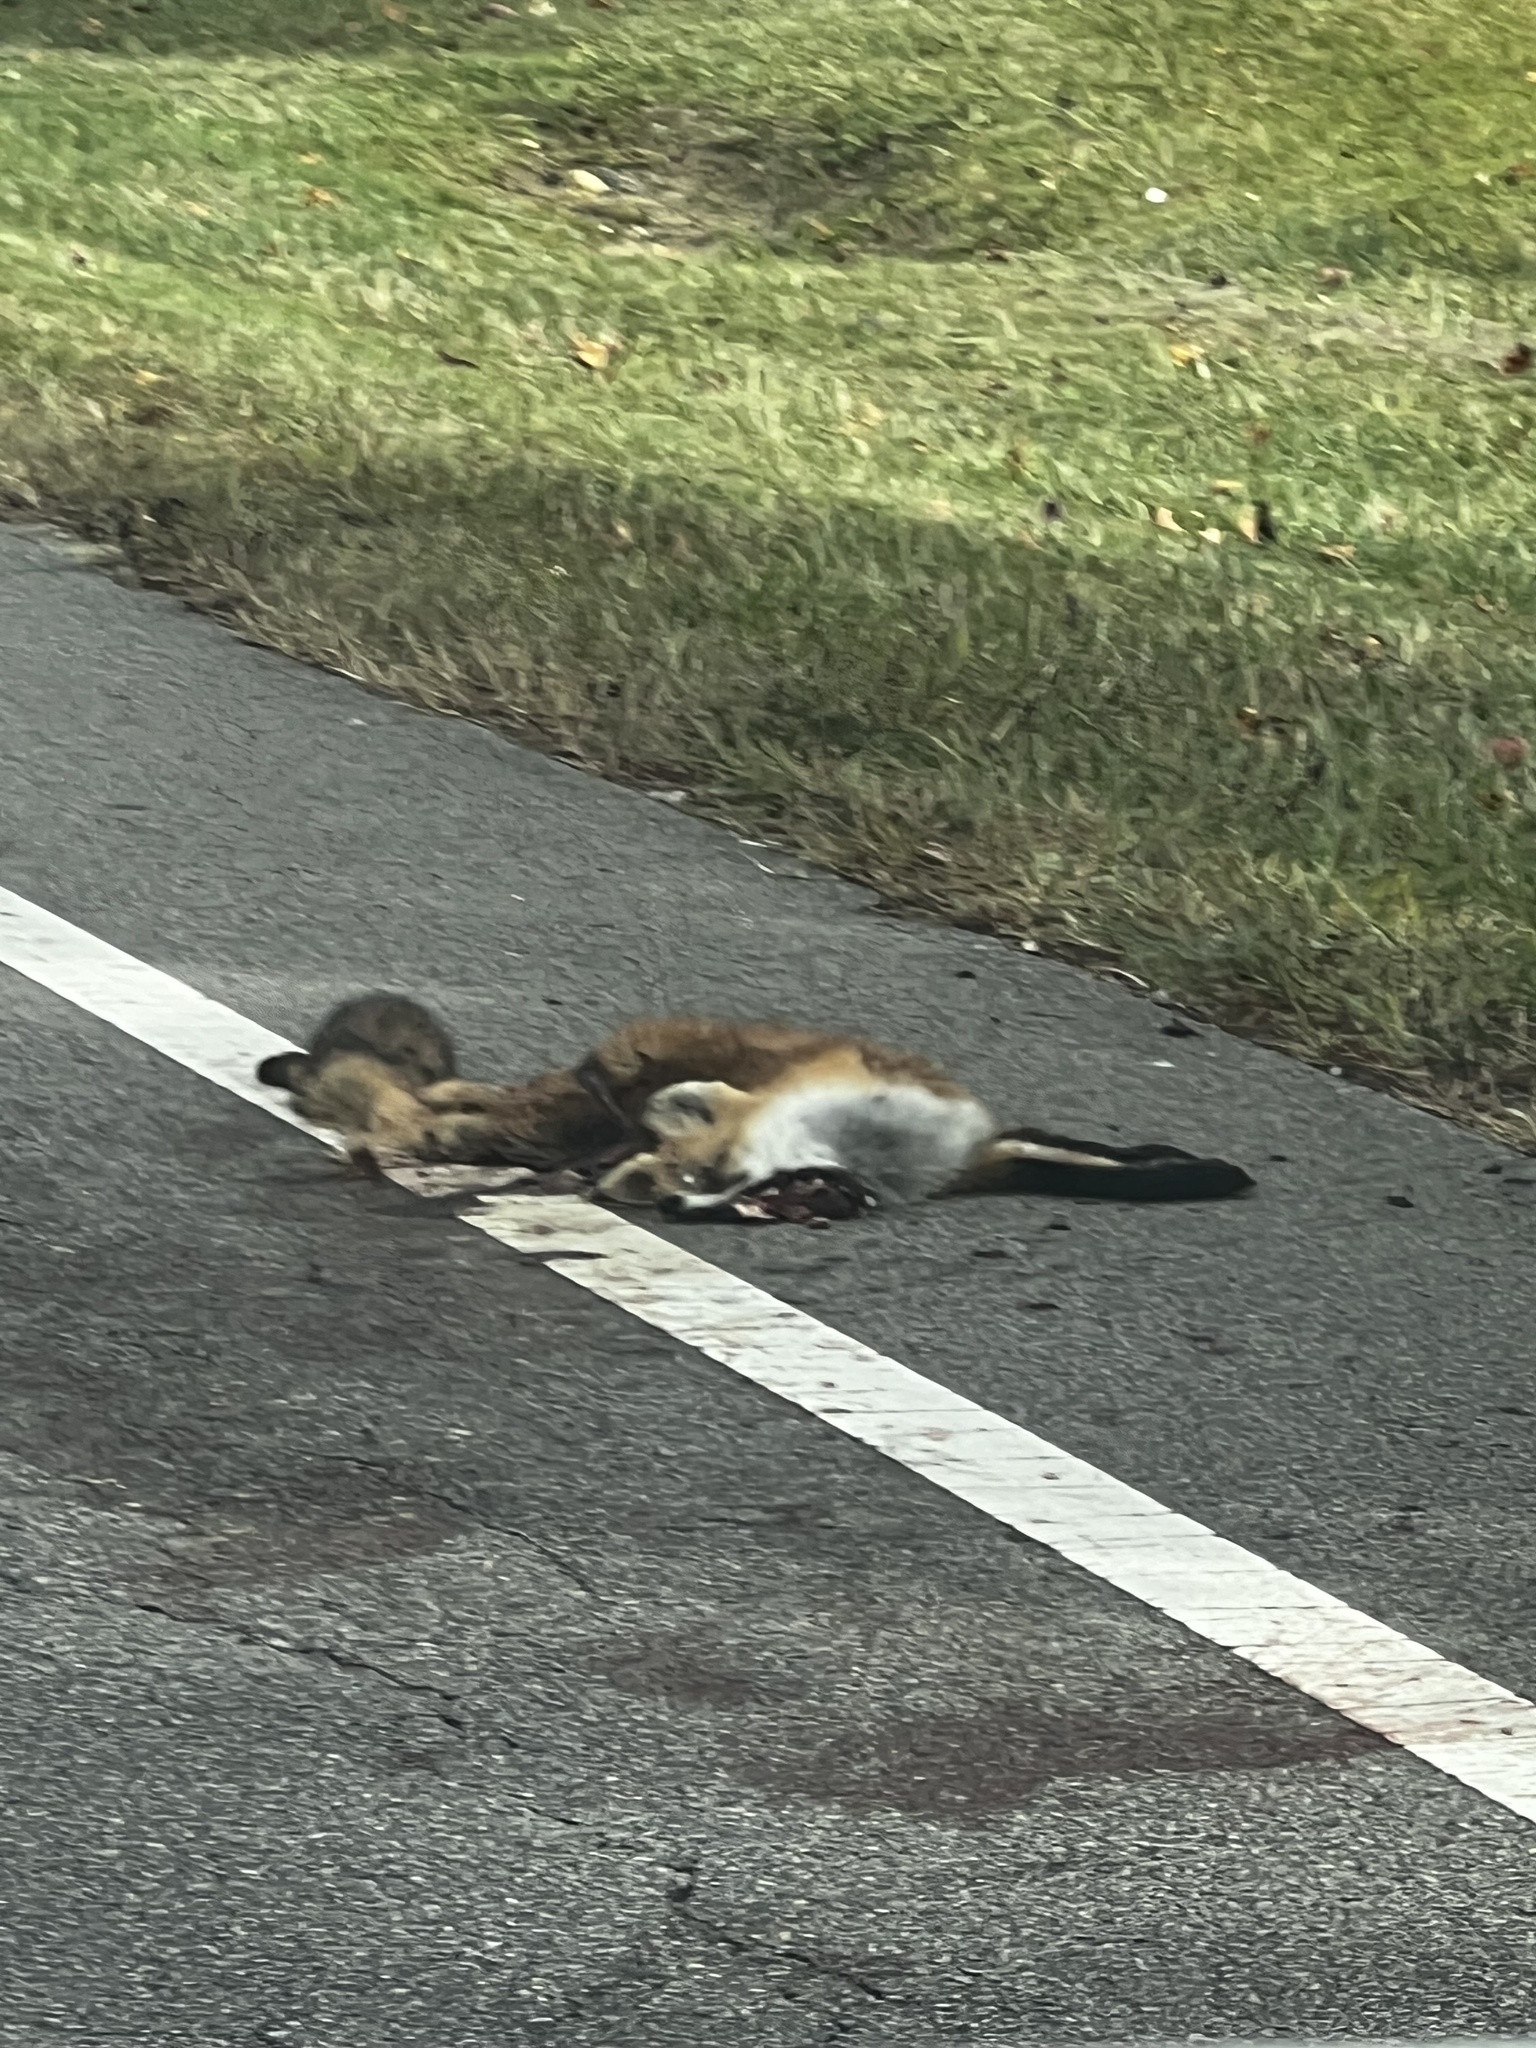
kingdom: Animalia
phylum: Chordata
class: Mammalia
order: Carnivora
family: Canidae
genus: Vulpes
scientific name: Vulpes vulpes
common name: Red fox
